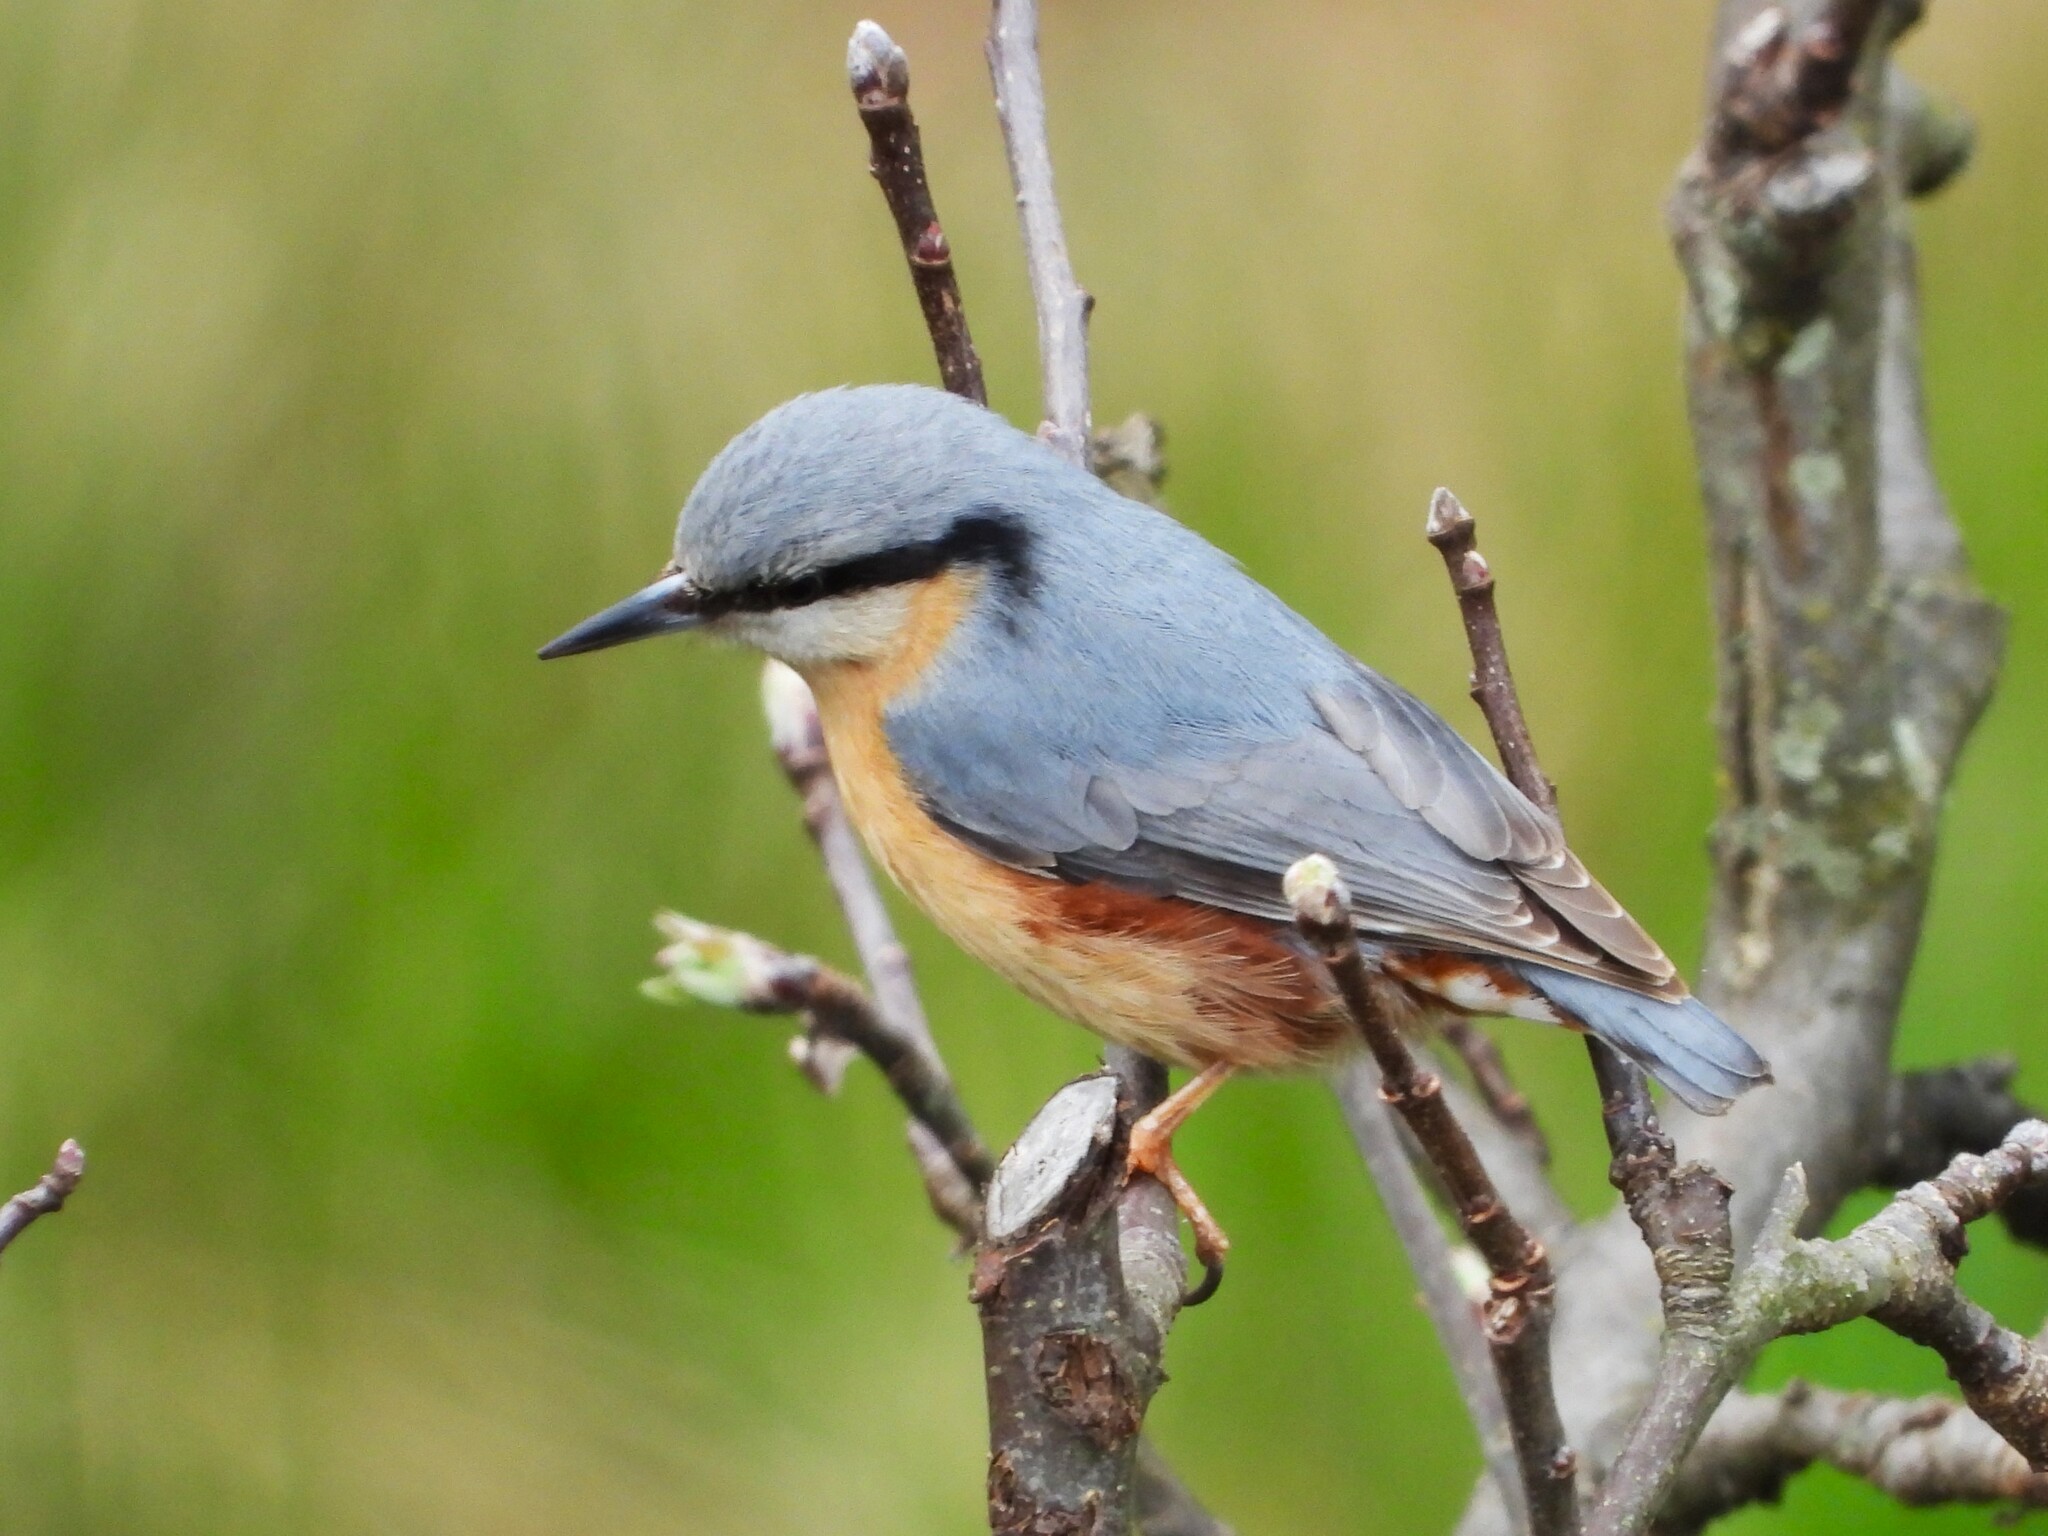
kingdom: Animalia
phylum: Chordata
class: Aves
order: Passeriformes
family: Sittidae
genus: Sitta
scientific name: Sitta europaea
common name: Eurasian nuthatch
